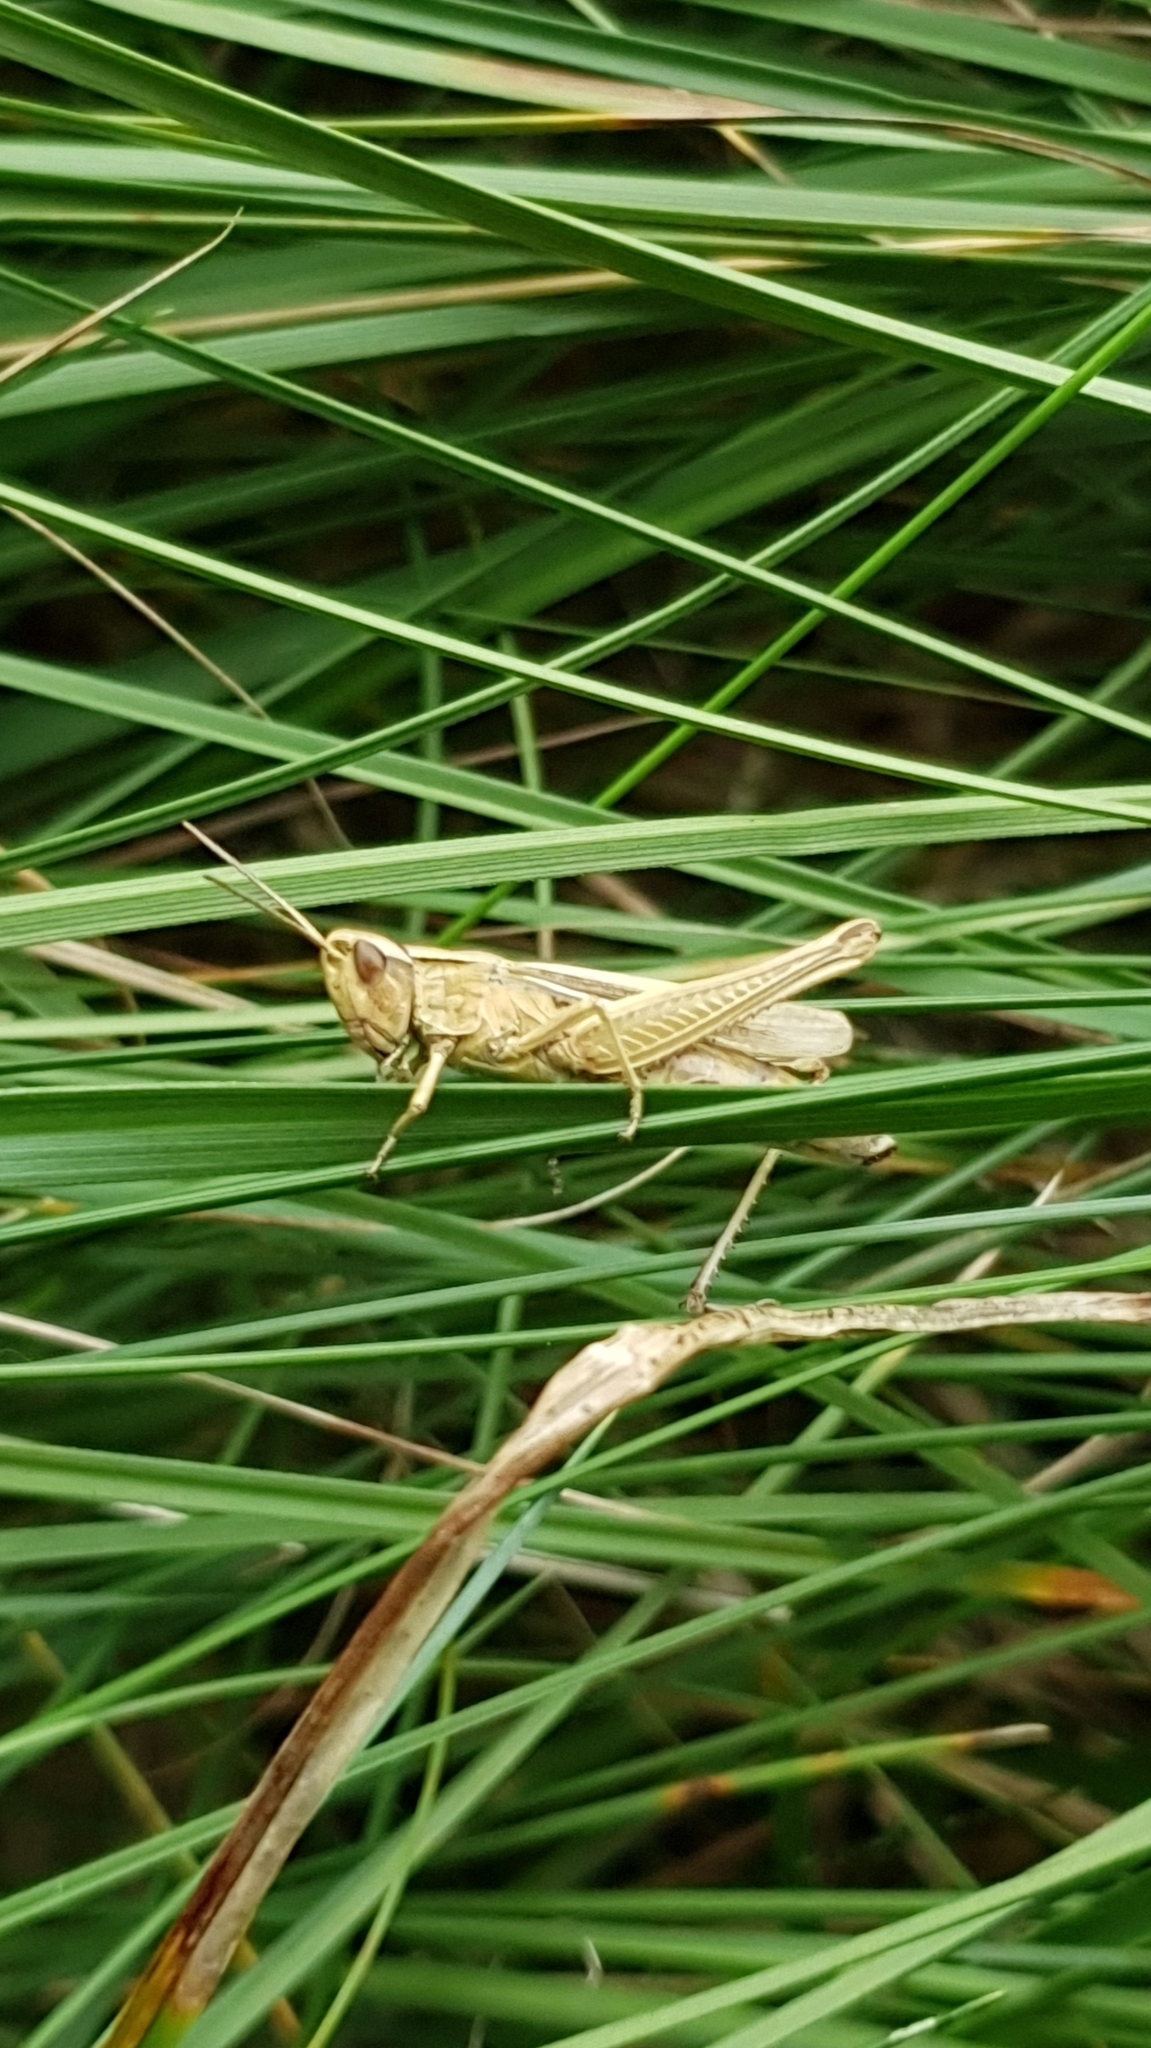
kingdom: Animalia
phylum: Arthropoda
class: Insecta
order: Orthoptera
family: Acrididae
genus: Chorthippus
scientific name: Chorthippus albomarginatus
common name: Lesser marsh grasshopper
